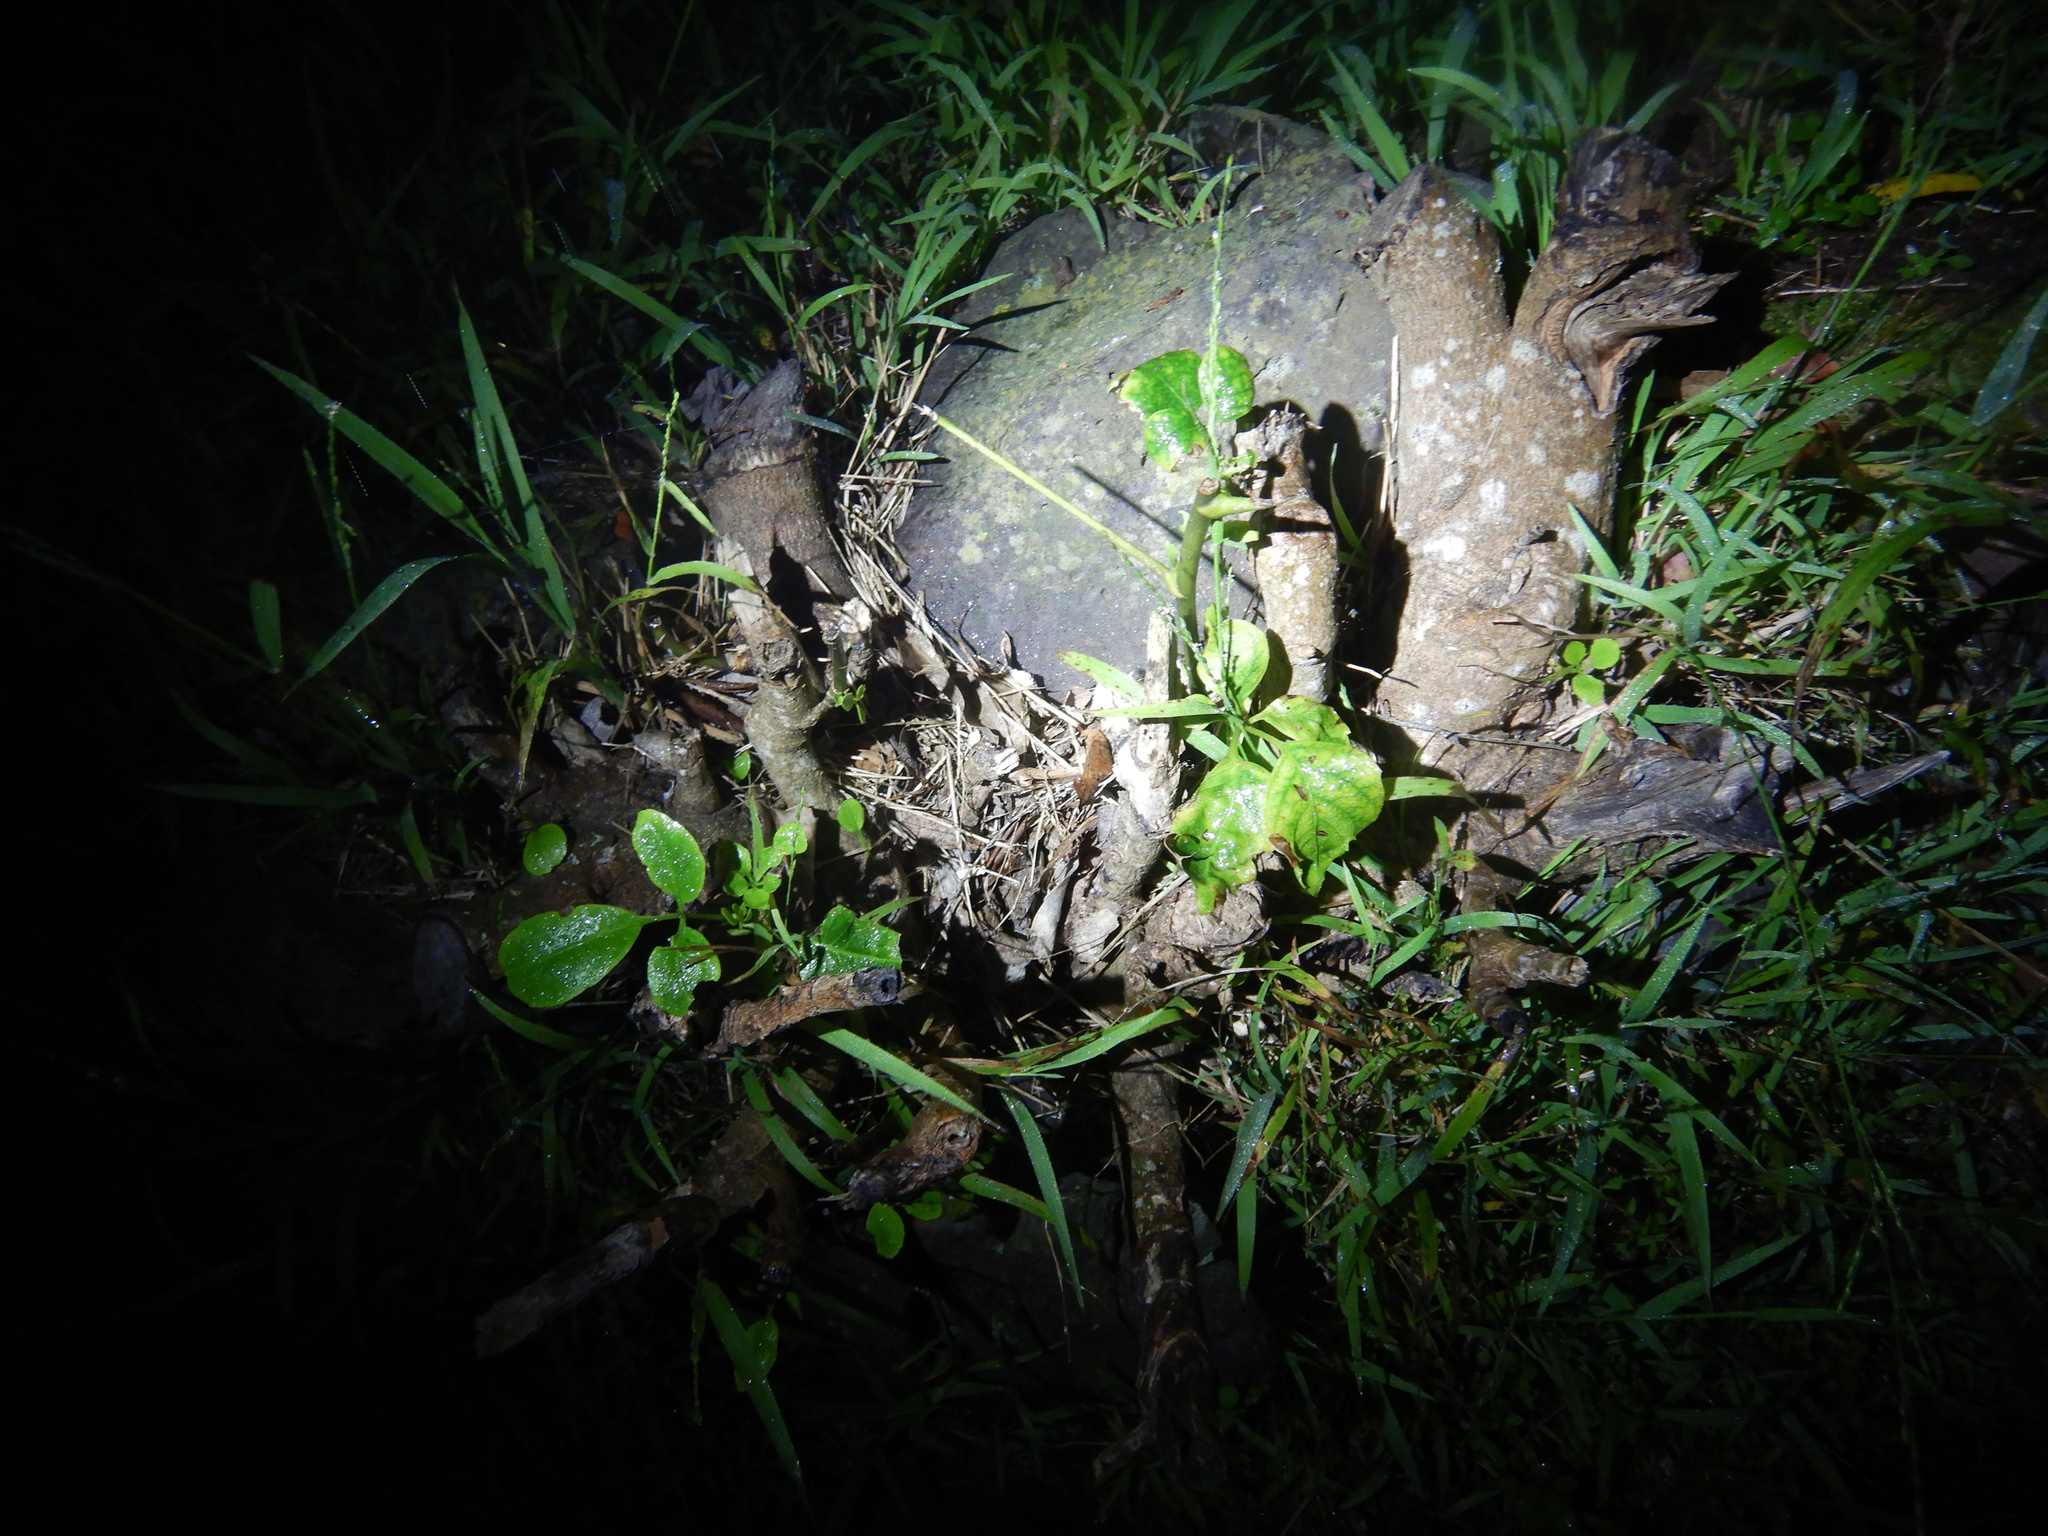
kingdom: Plantae
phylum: Tracheophyta
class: Magnoliopsida
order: Apiales
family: Araliaceae
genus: Neopanax
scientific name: Neopanax arboreus
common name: Five-fingers
